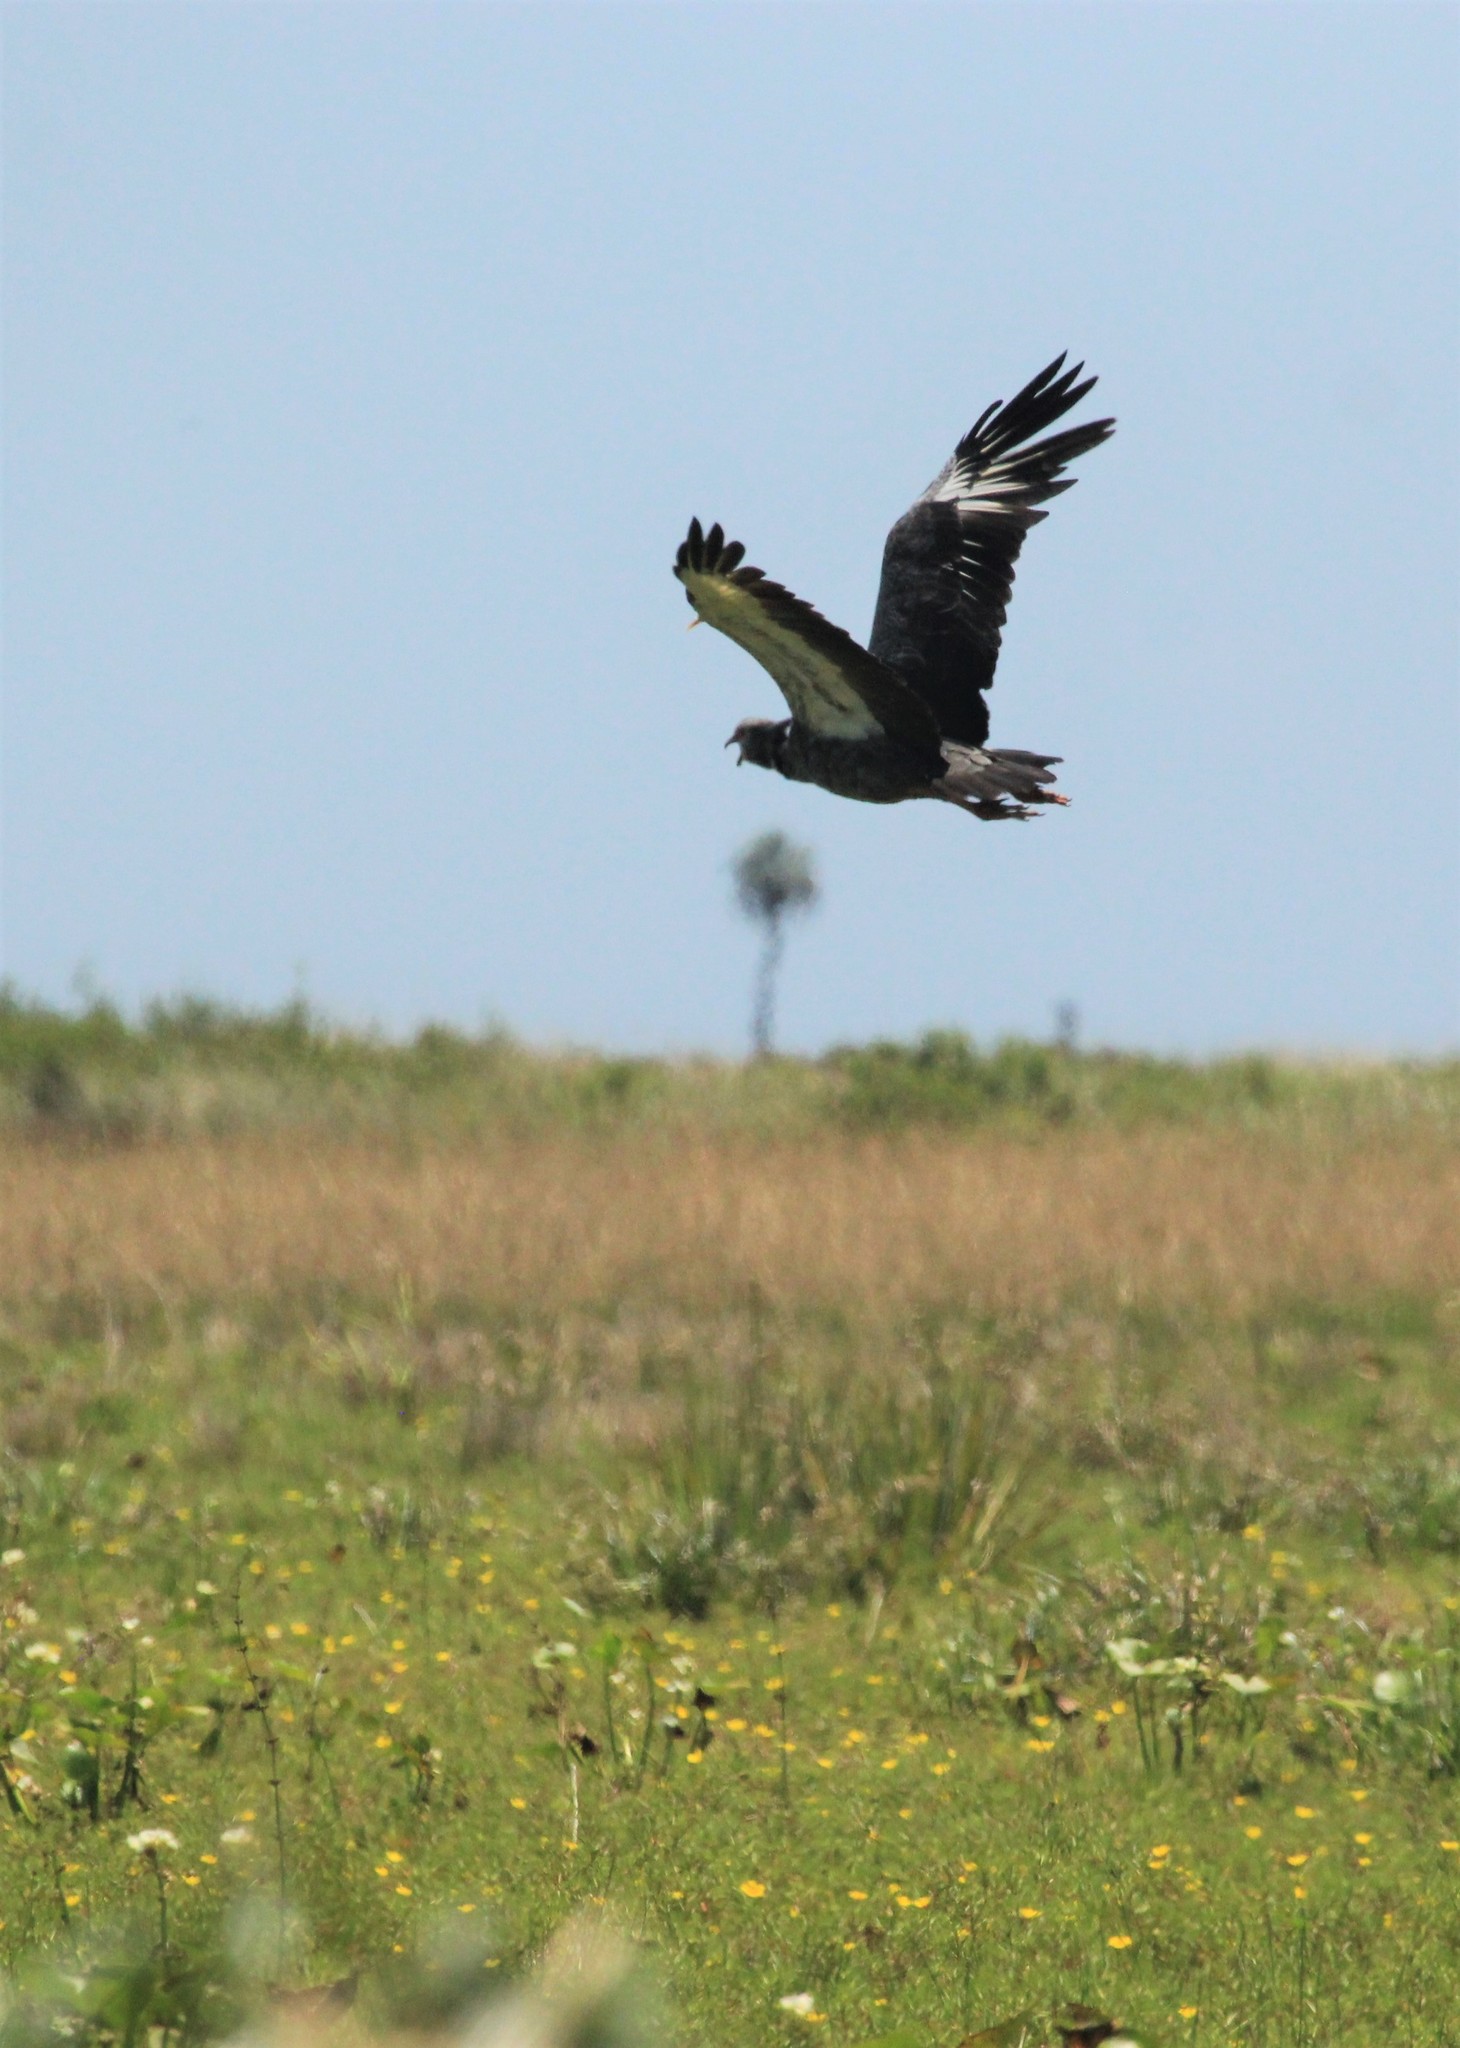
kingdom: Animalia
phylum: Chordata
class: Aves
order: Anseriformes
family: Anhimidae
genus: Chauna
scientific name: Chauna torquata
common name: Southern screamer
